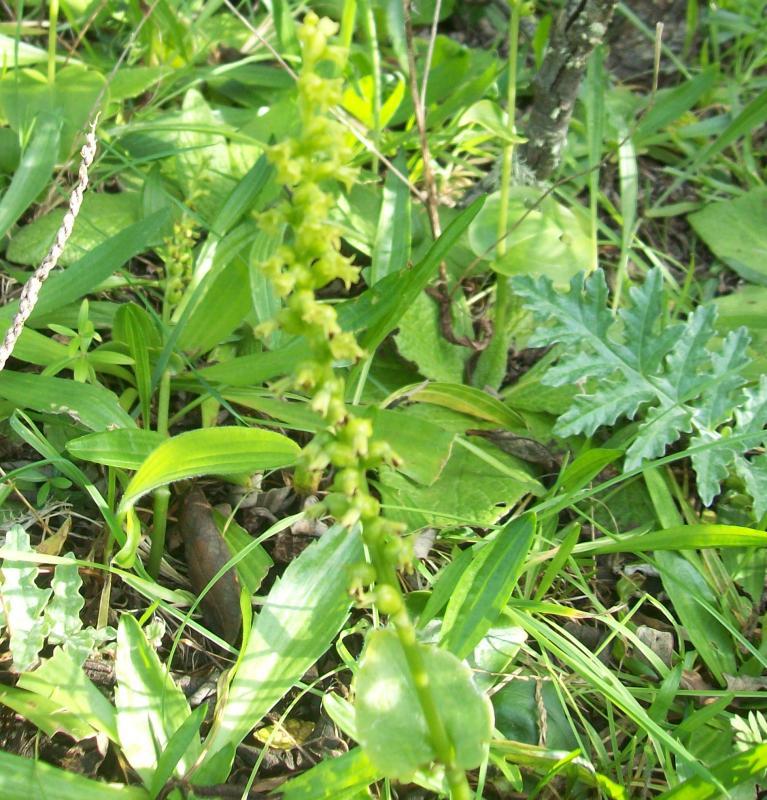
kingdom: Plantae
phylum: Tracheophyta
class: Liliopsida
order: Asparagales
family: Orchidaceae
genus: Gennaria
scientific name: Gennaria diphylla
